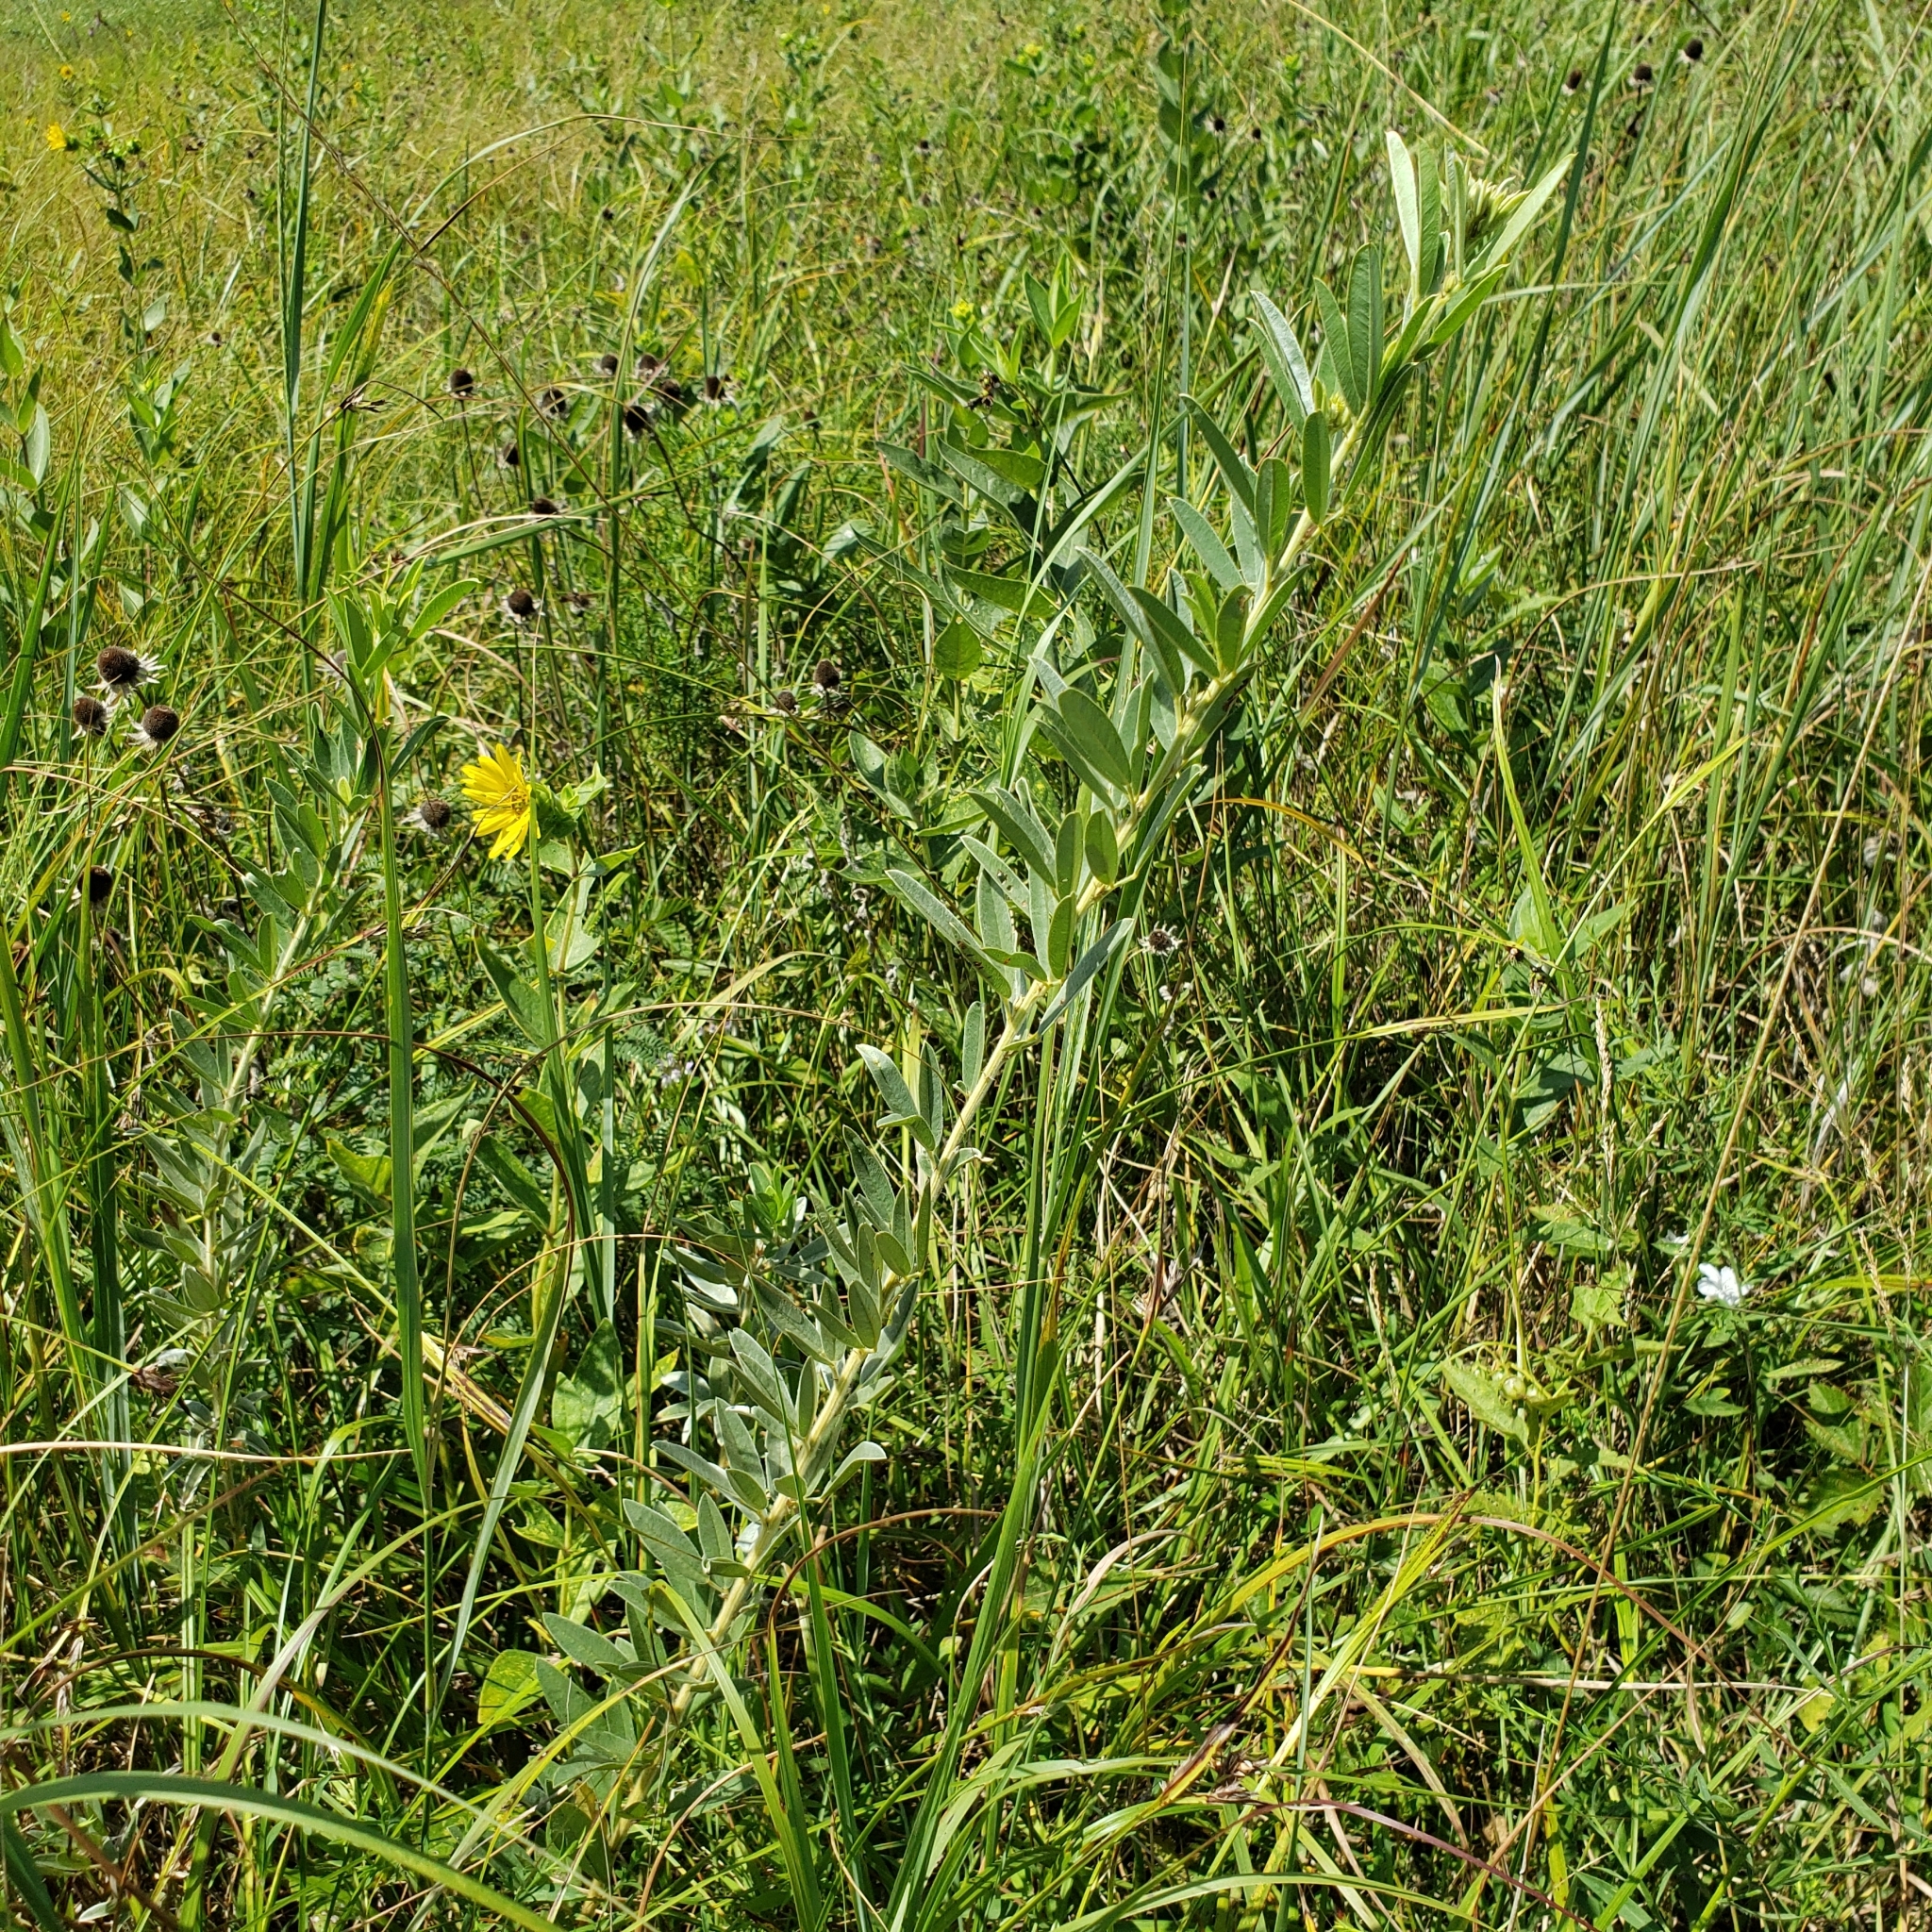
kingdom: Plantae
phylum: Tracheophyta
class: Magnoliopsida
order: Fabales
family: Fabaceae
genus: Lespedeza
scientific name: Lespedeza capitata
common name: Dusty clover
